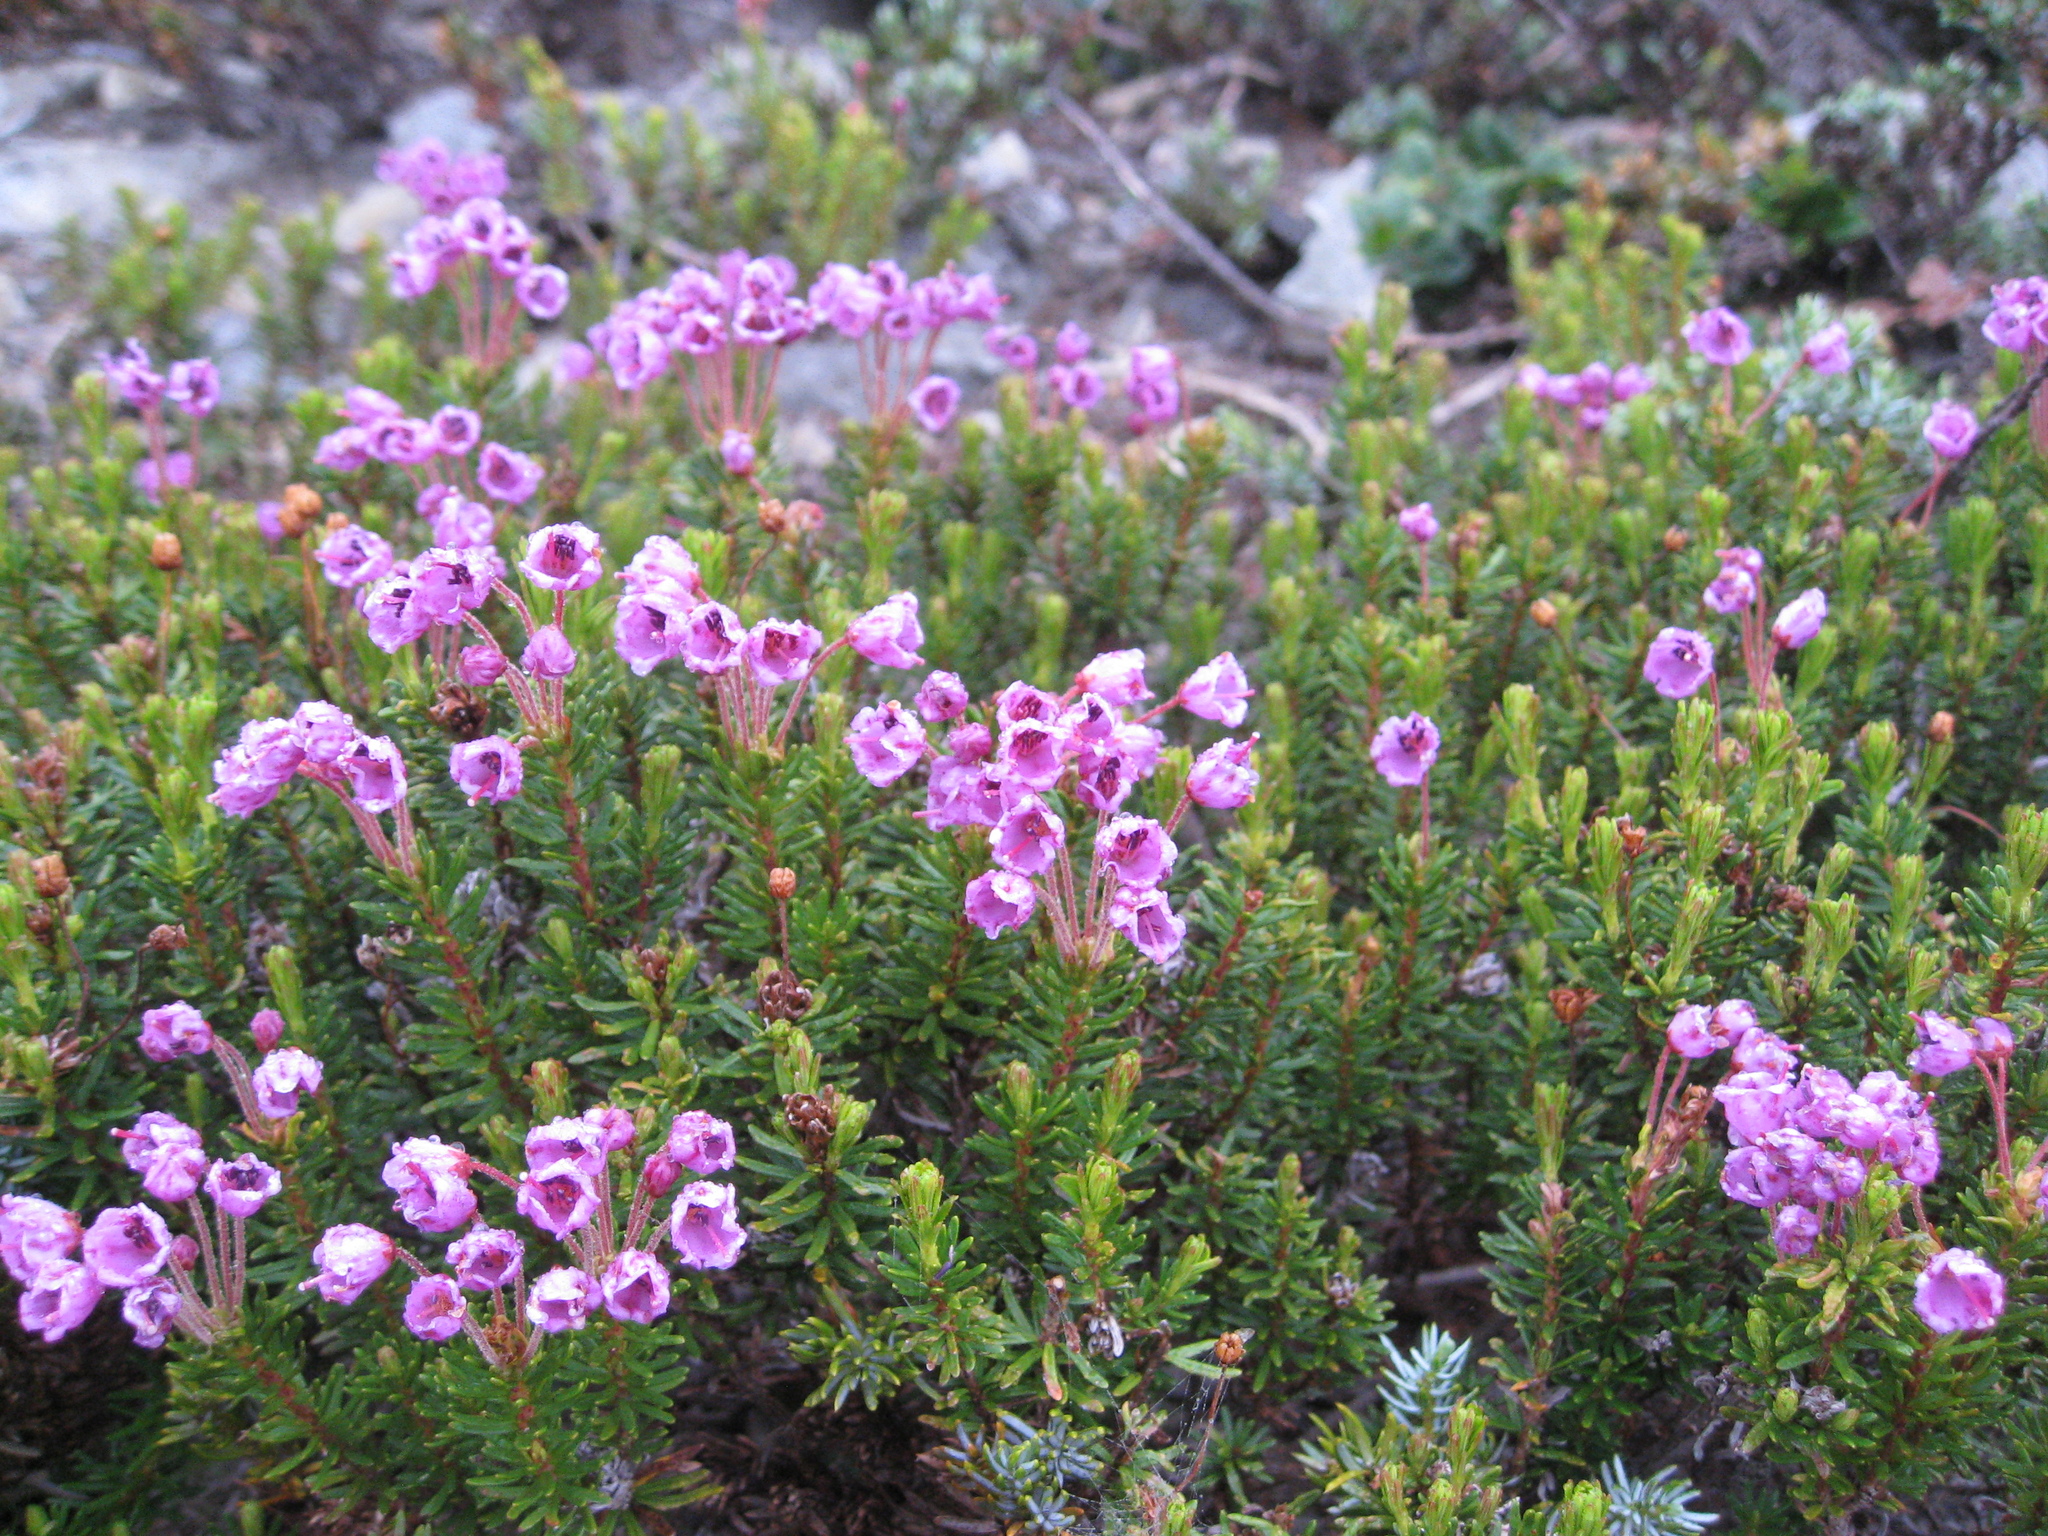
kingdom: Plantae
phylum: Tracheophyta
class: Magnoliopsida
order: Ericales
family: Ericaceae
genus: Phyllodoce
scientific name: Phyllodoce empetriformis
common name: Pink mountain heather
